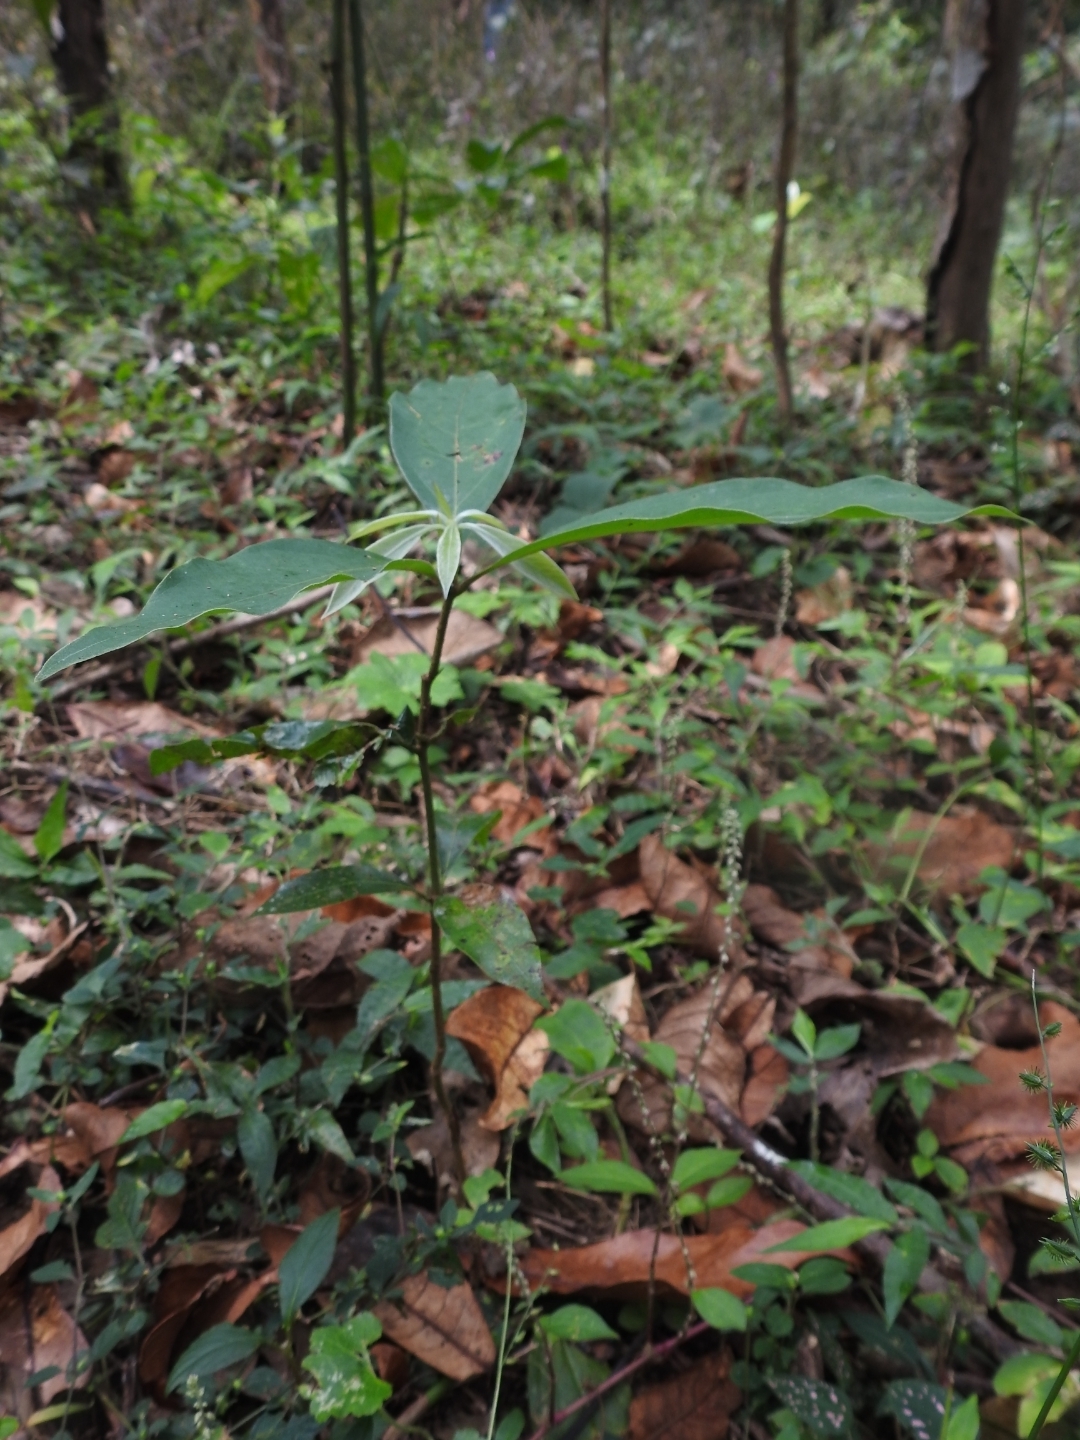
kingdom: Plantae
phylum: Tracheophyta
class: Magnoliopsida
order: Laurales
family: Lauraceae
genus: Actinodaphne
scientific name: Actinodaphne wightiana
